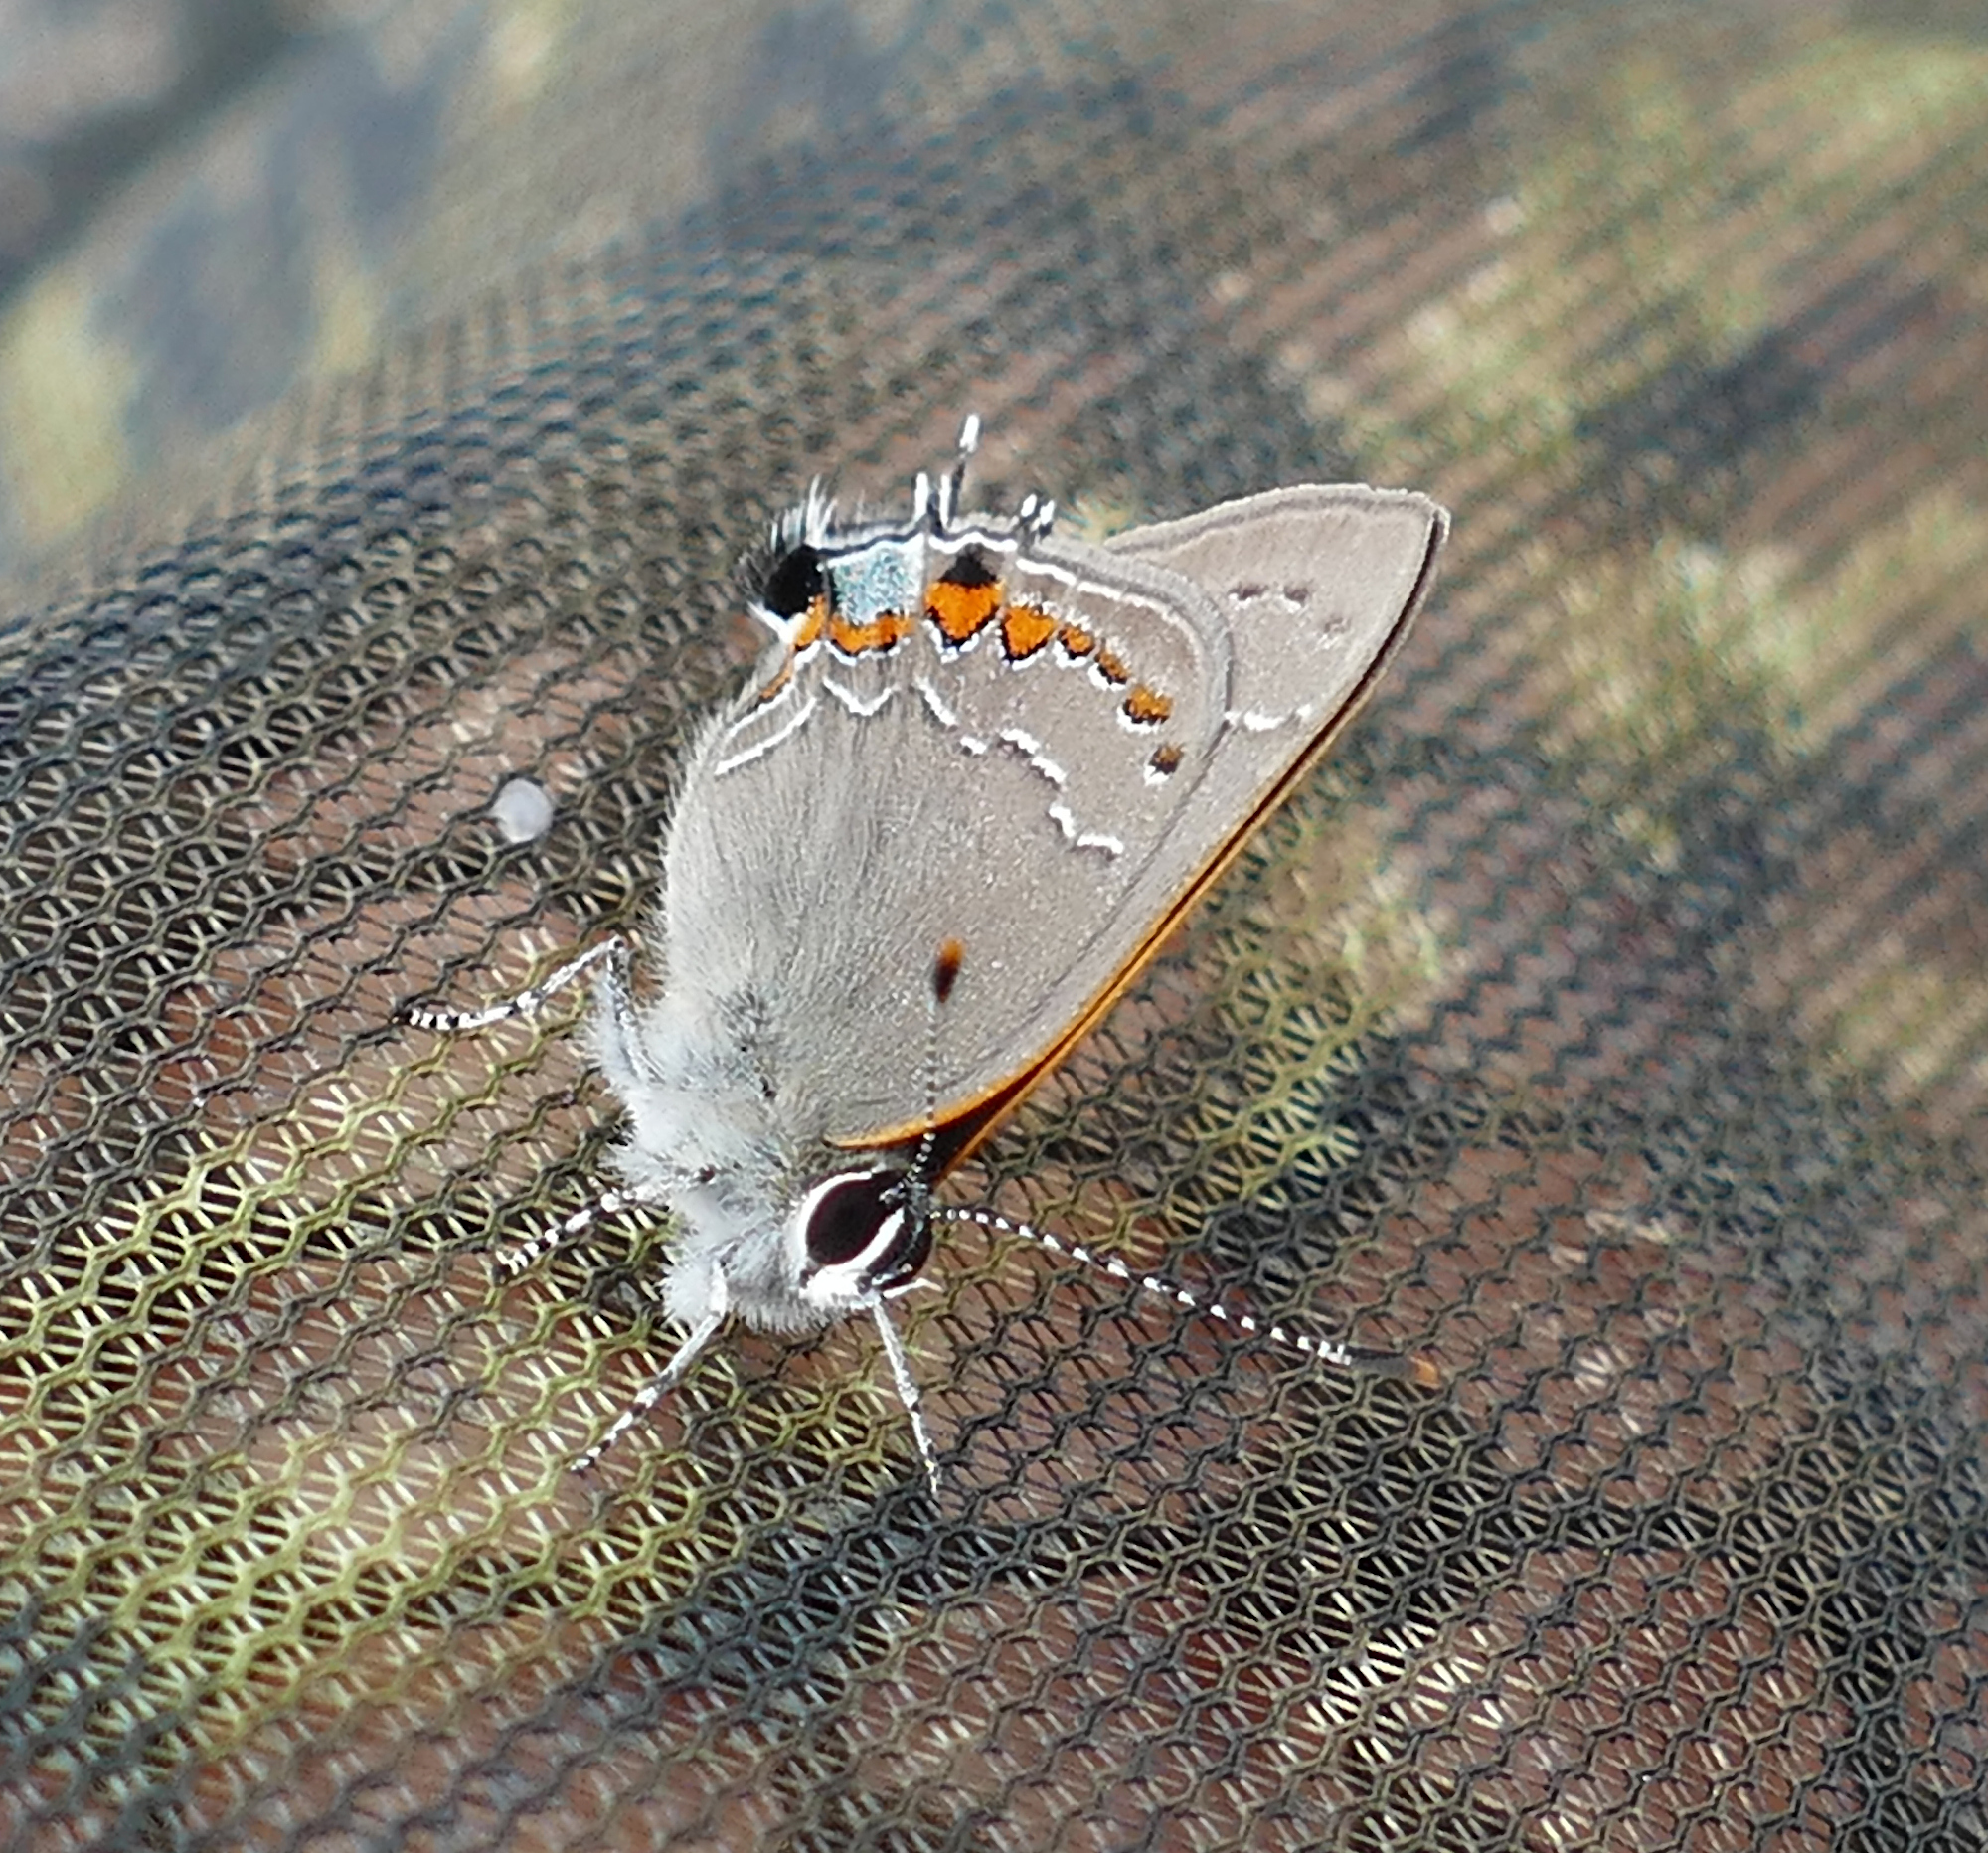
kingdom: Animalia
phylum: Arthropoda
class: Insecta
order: Lepidoptera
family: Lycaenidae
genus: Fixsenia
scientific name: Fixsenia favonius
